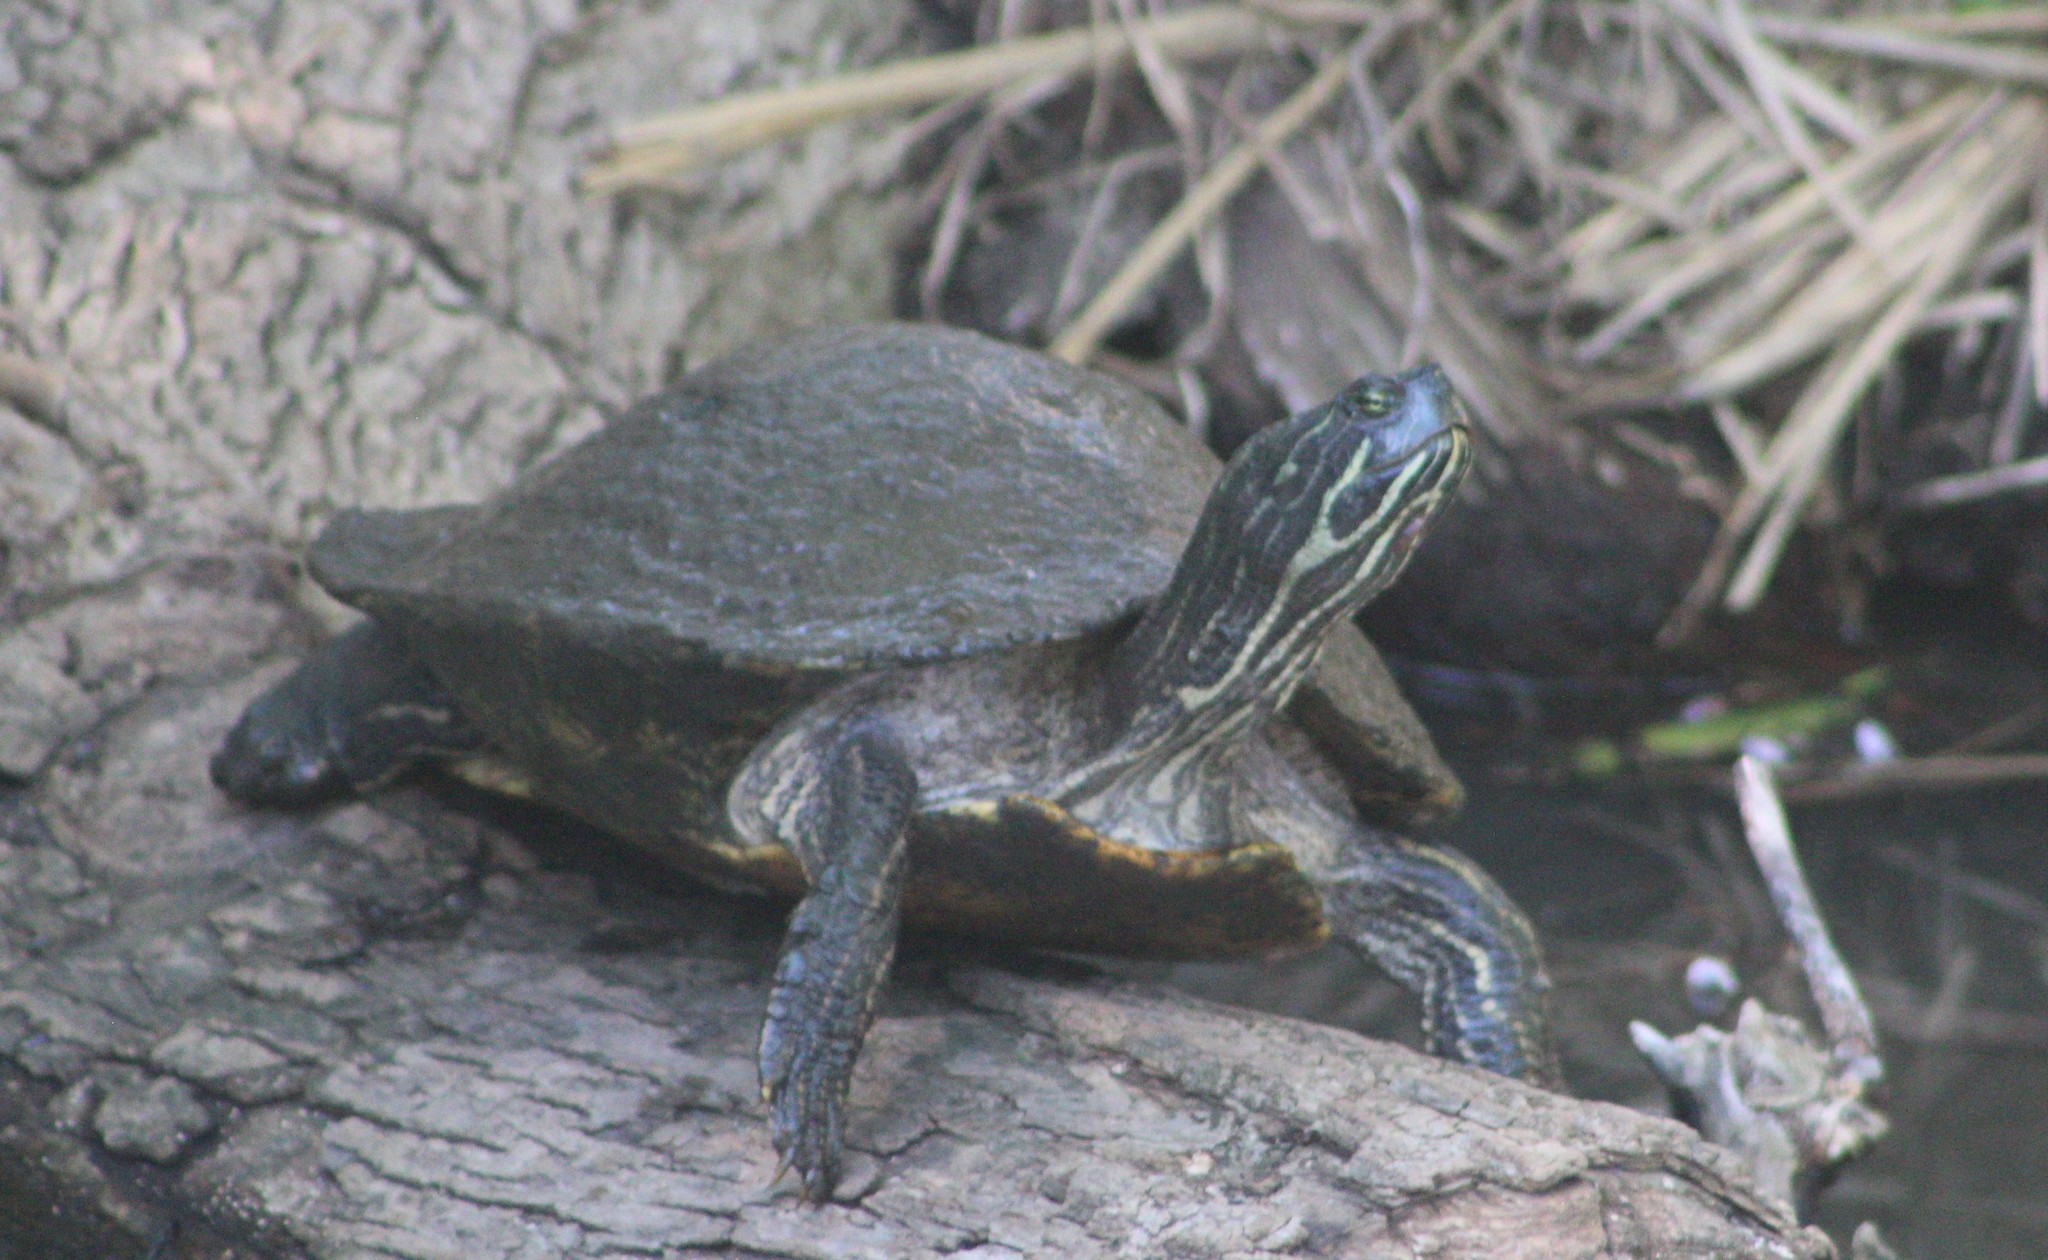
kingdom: Animalia
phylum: Chordata
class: Testudines
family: Emydidae
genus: Pseudemys
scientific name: Pseudemys concinna
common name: Eastern river cooter
